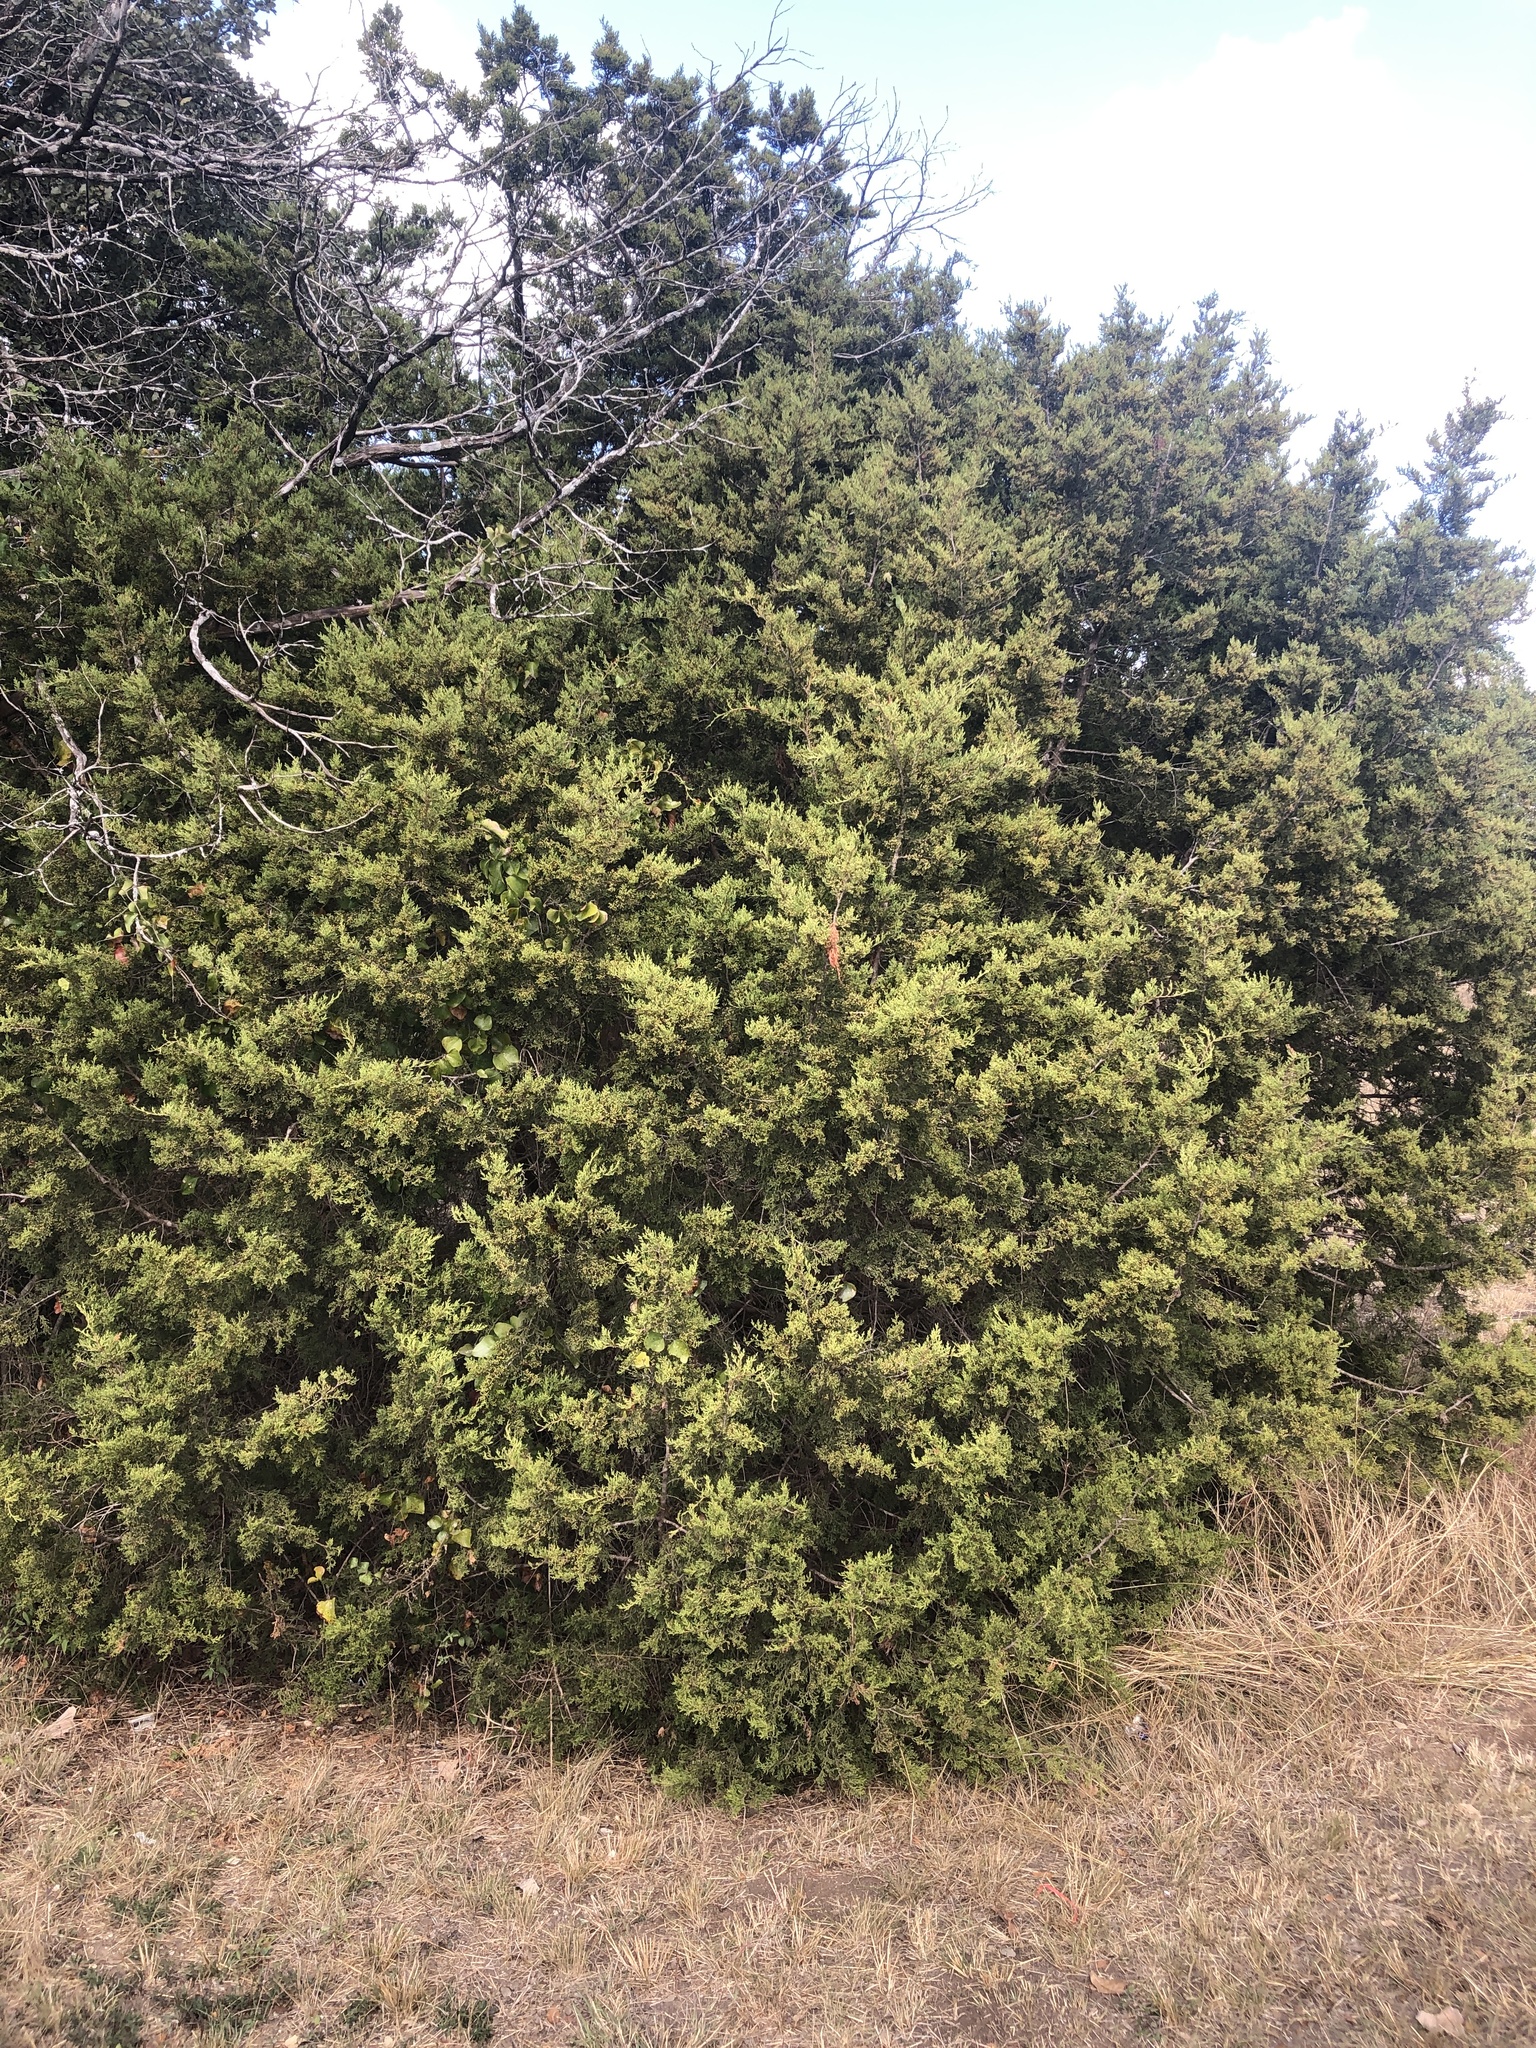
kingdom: Plantae
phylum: Tracheophyta
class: Pinopsida
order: Pinales
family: Cupressaceae
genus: Juniperus
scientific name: Juniperus ashei
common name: Mexican juniper
